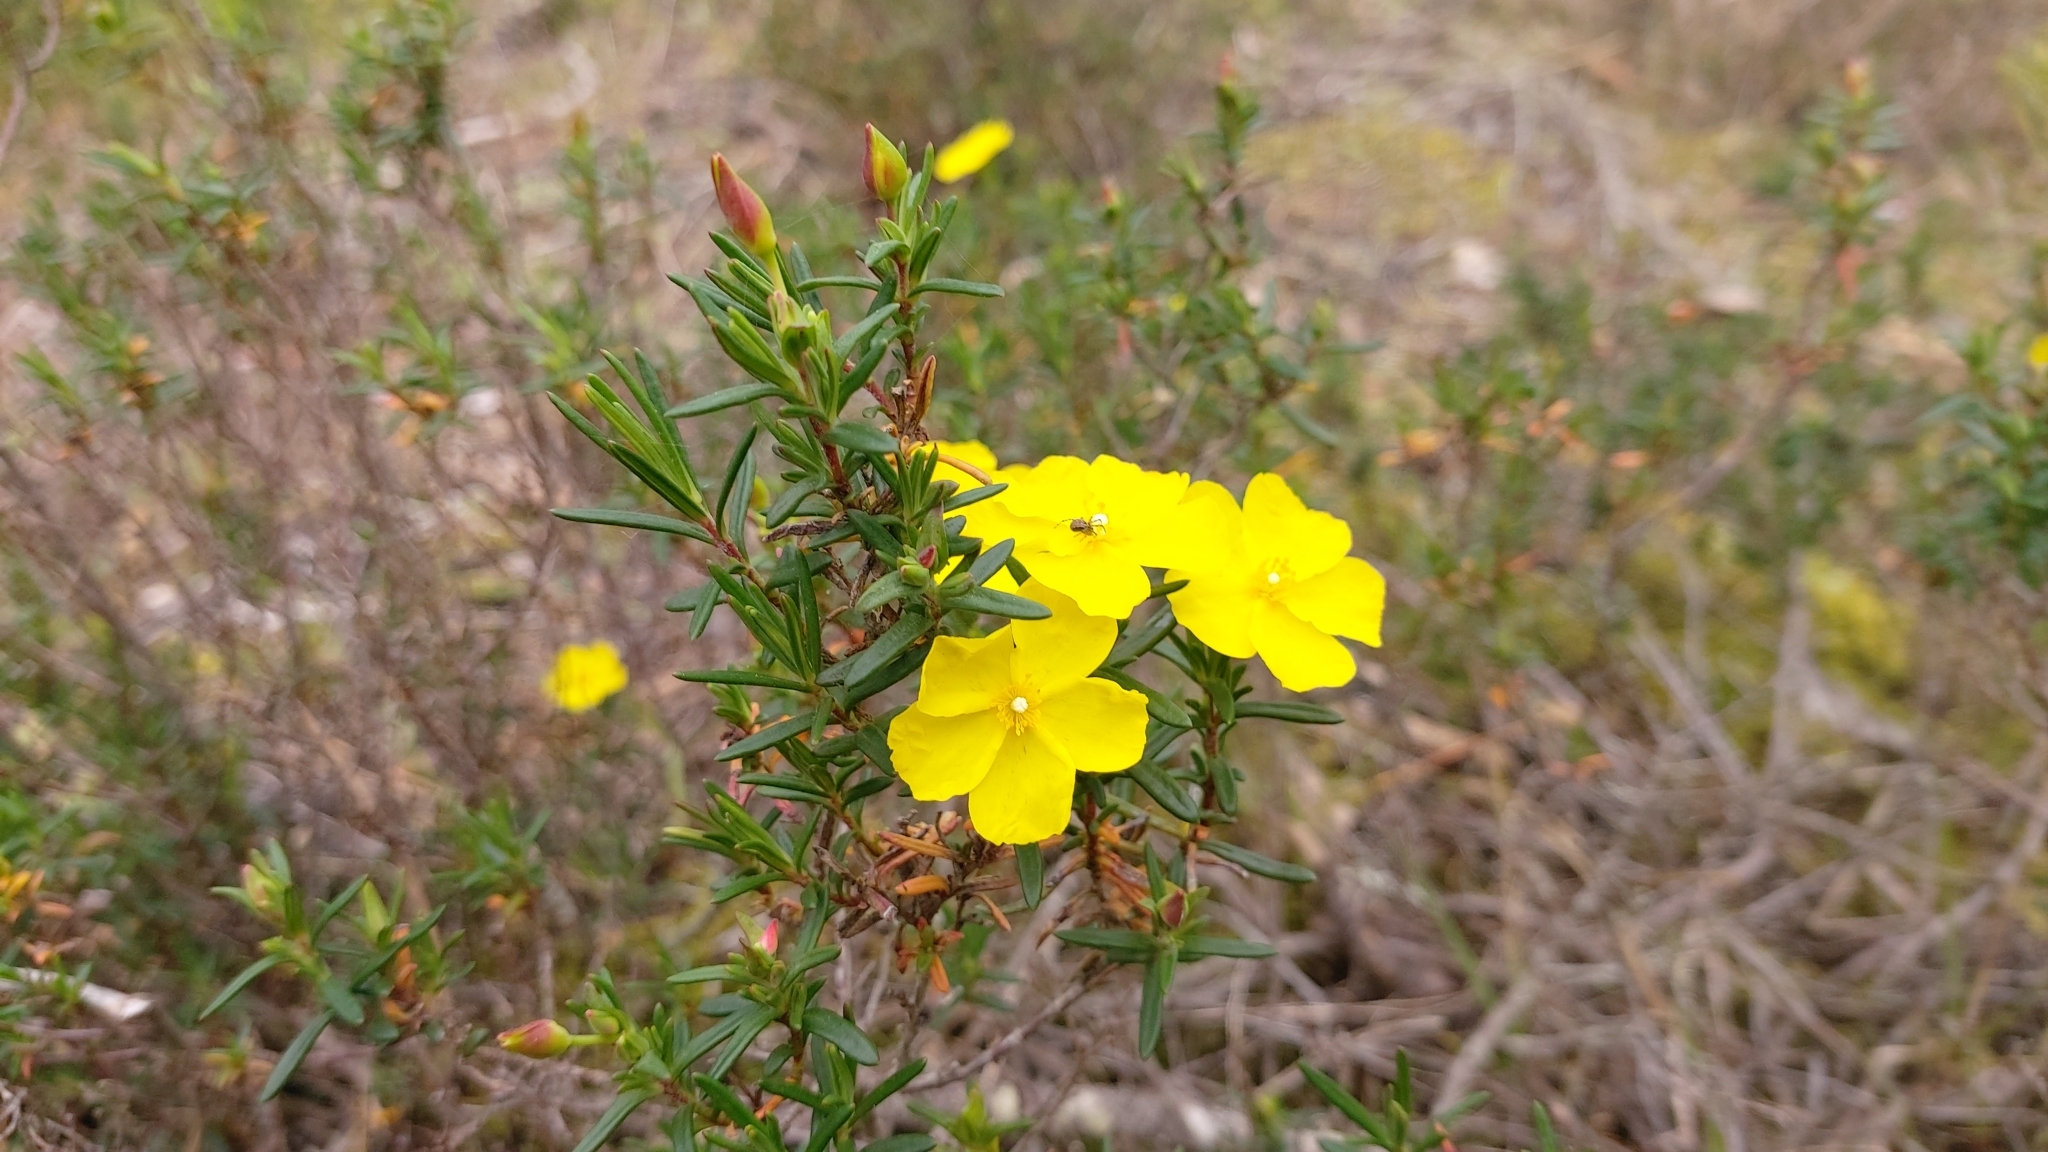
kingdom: Plantae
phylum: Tracheophyta
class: Magnoliopsida
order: Malvales
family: Cistaceae
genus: Halimium
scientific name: Halimium calycinum
